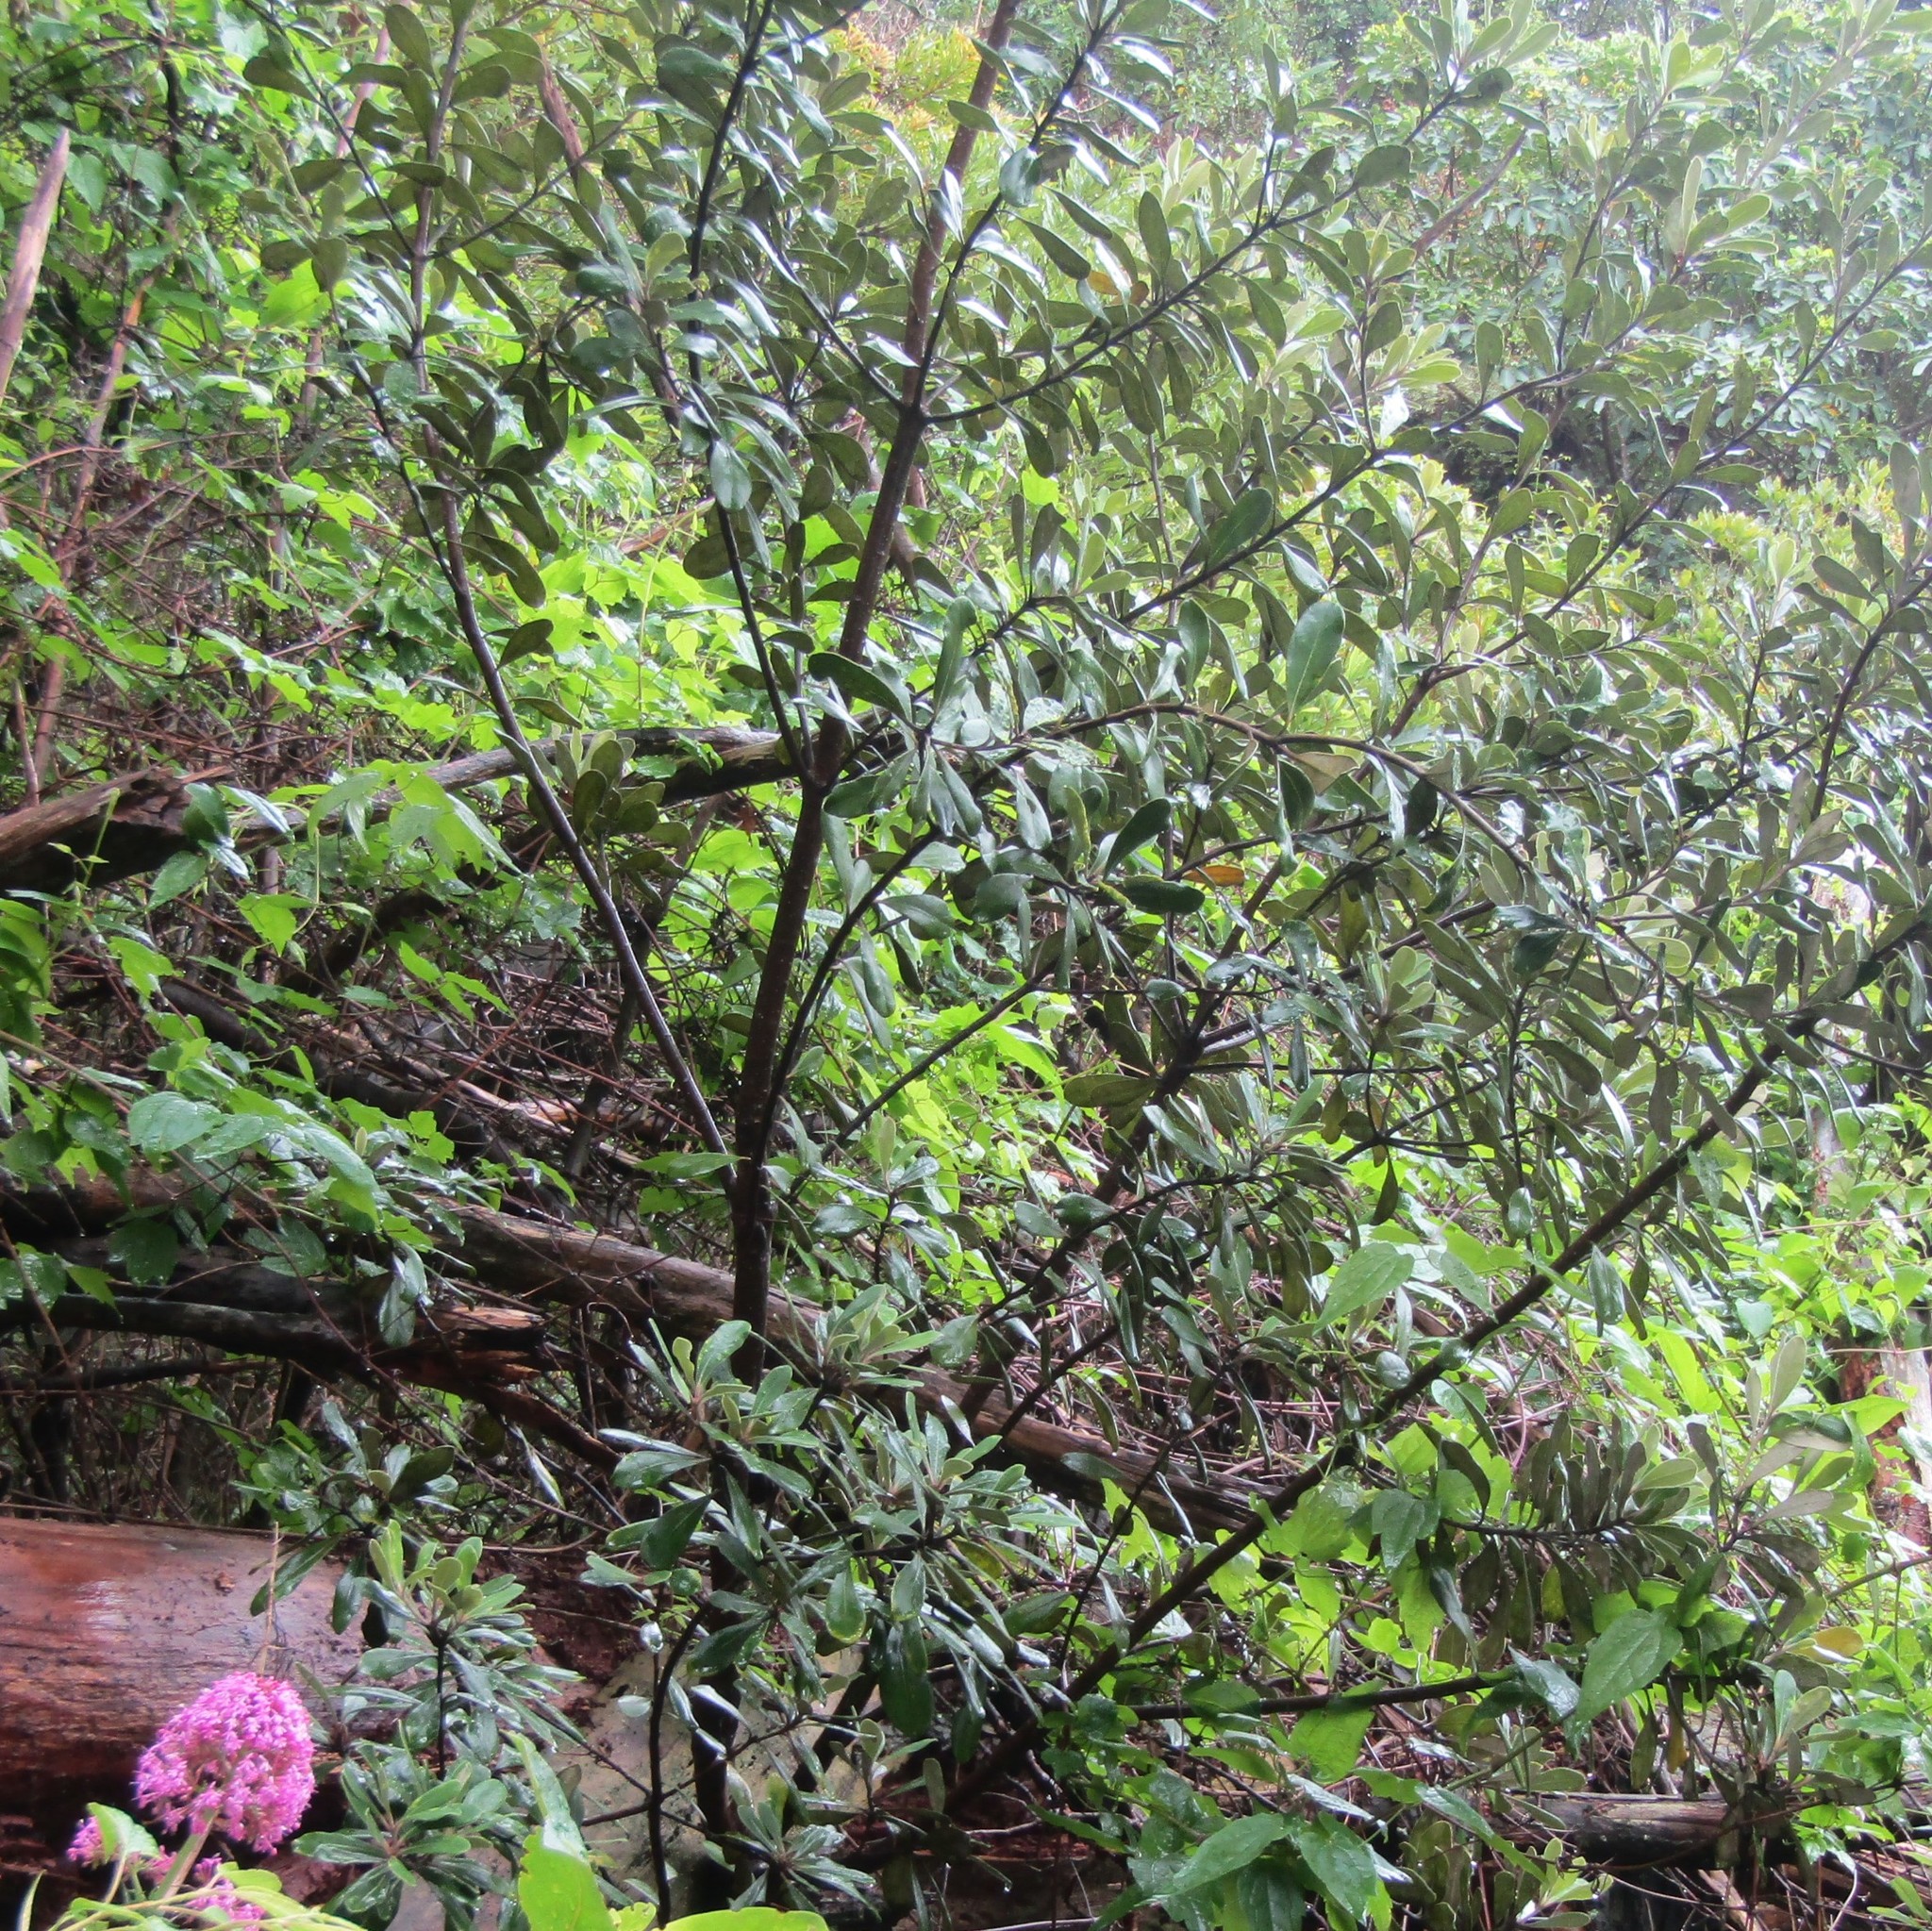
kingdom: Plantae
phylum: Tracheophyta
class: Magnoliopsida
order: Ranunculales
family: Ranunculaceae
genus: Clematis
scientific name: Clematis vitalba
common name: Evergreen clematis
